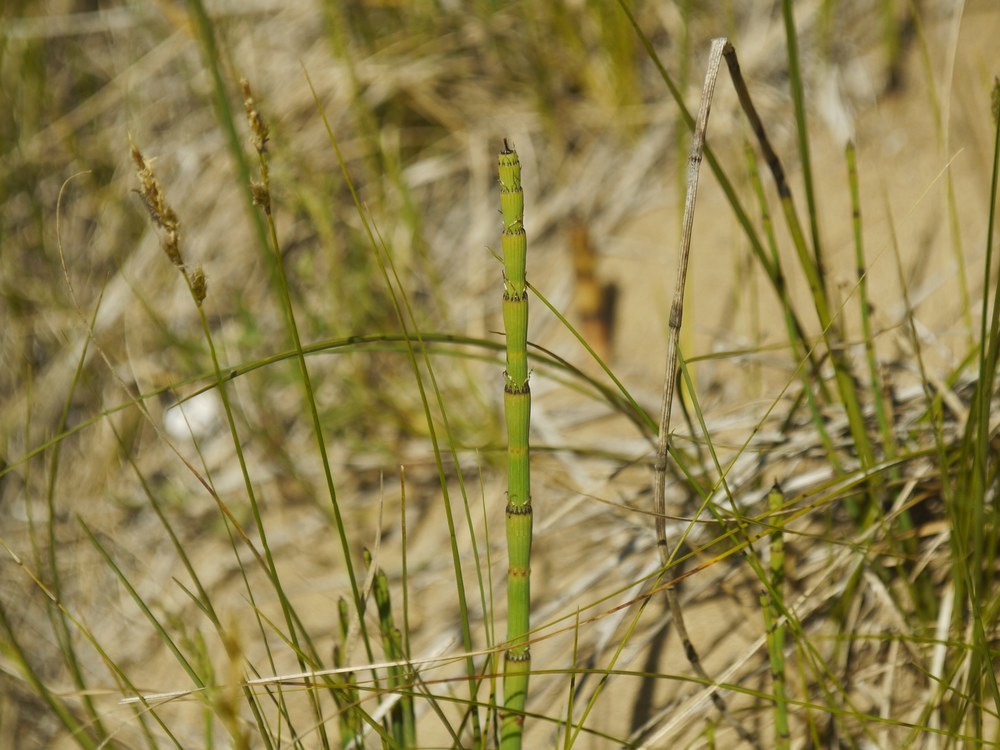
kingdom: Plantae
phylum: Tracheophyta
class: Polypodiopsida
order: Equisetales
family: Equisetaceae
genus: Equisetum
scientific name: Equisetum ramosissimum
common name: Branched horsetail
